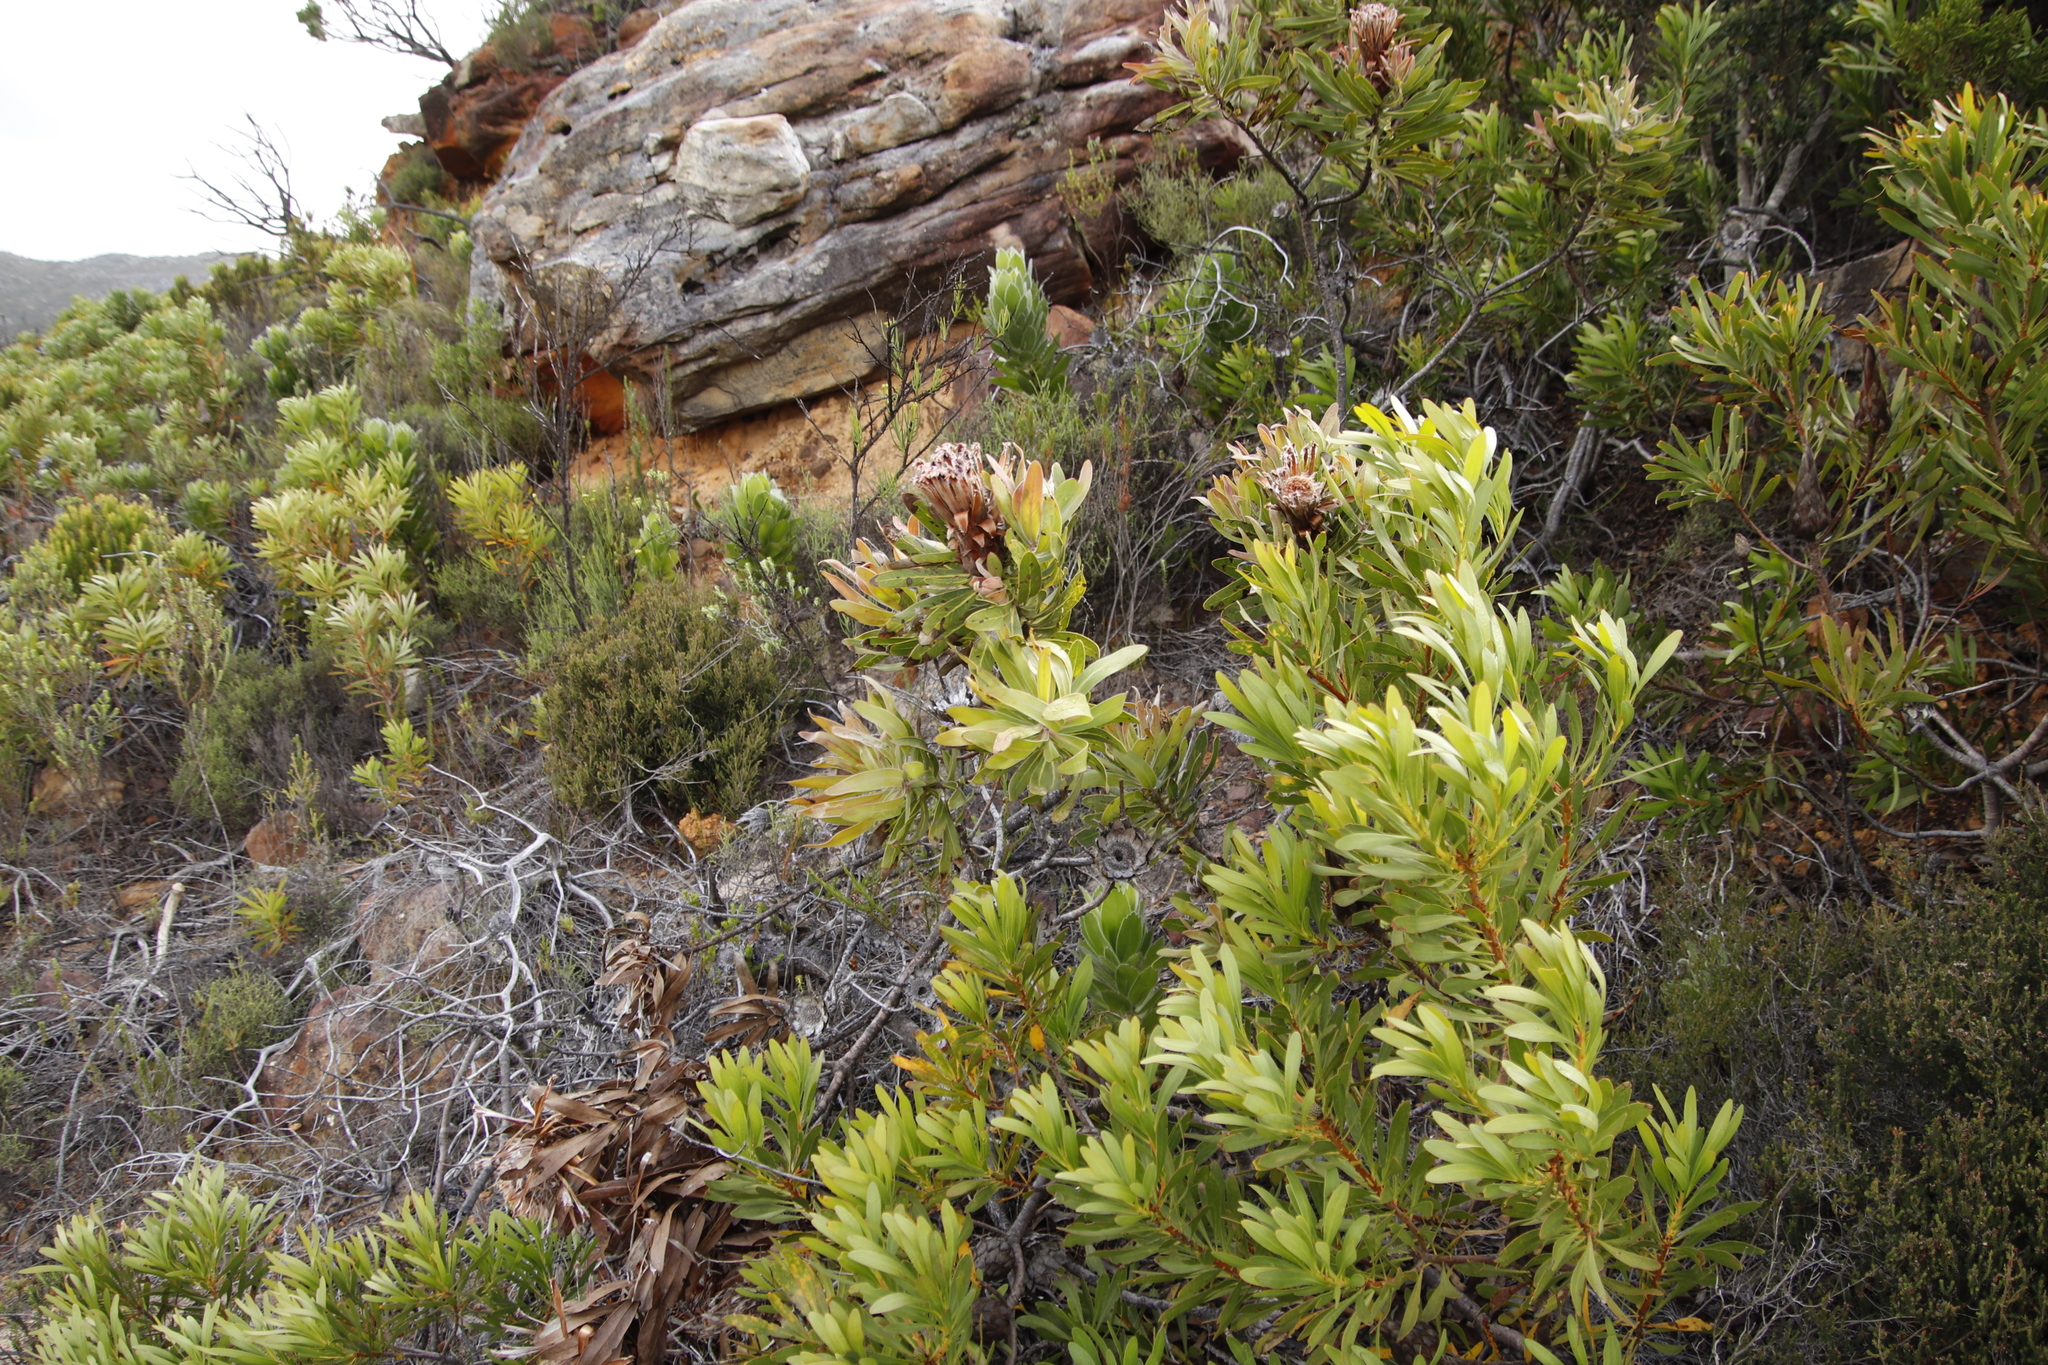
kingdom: Plantae
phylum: Tracheophyta
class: Magnoliopsida
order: Proteales
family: Proteaceae
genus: Protea
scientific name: Protea lepidocarpodendron
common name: Black-bearded protea
